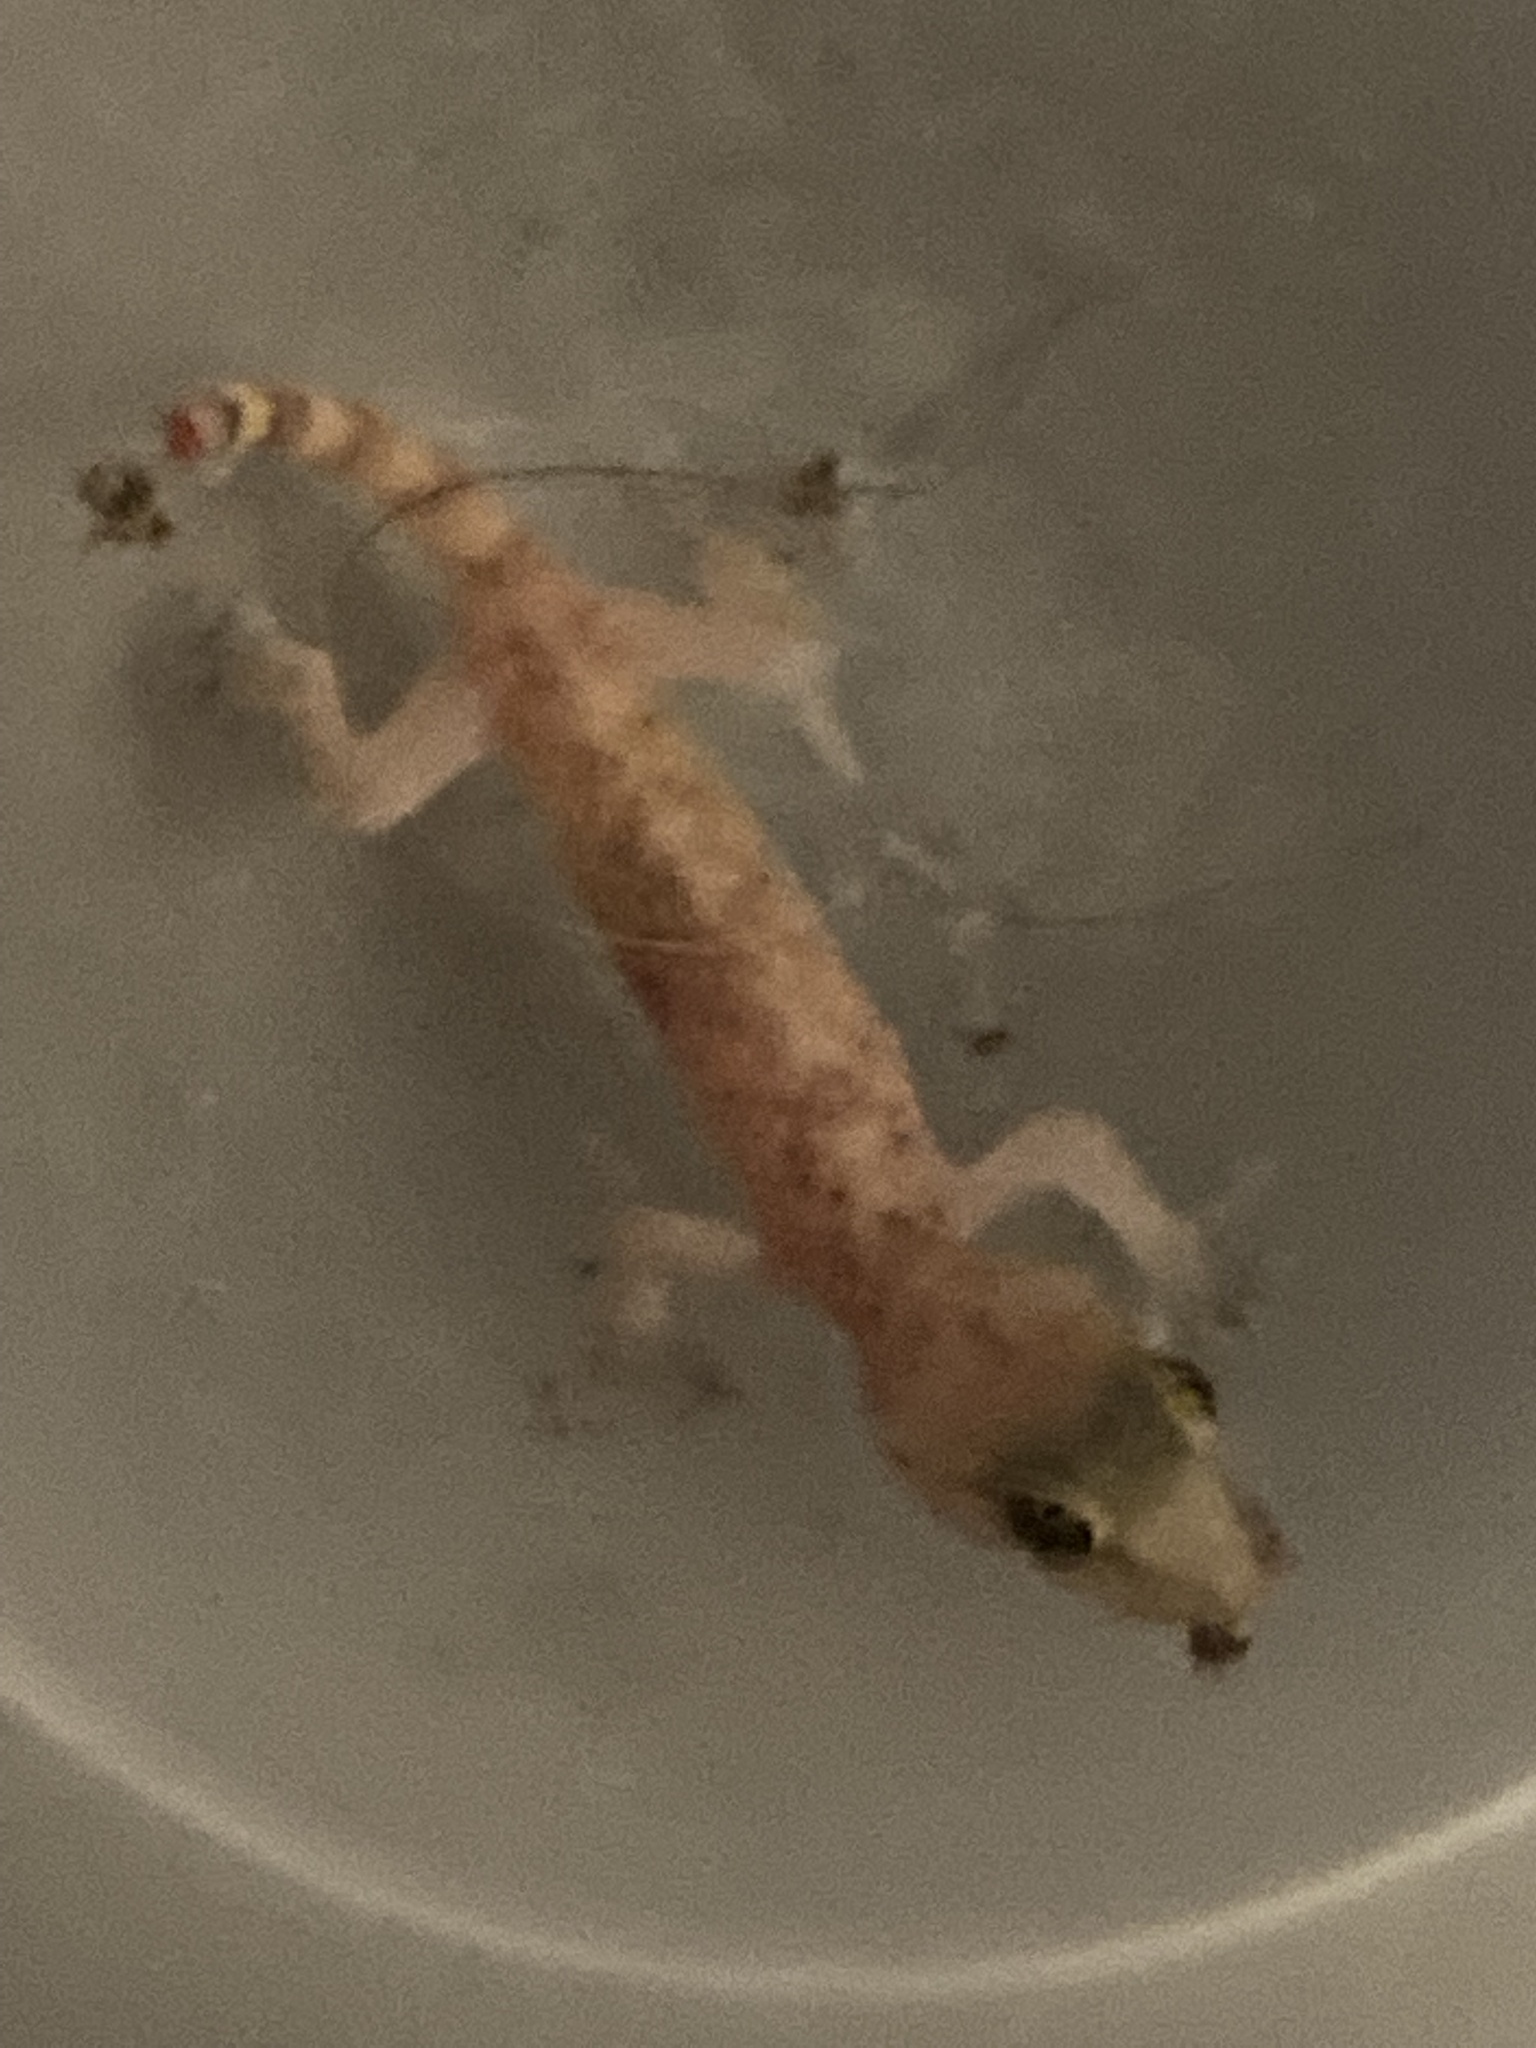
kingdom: Animalia
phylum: Chordata
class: Squamata
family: Gekkonidae
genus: Hemidactylus
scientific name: Hemidactylus turcicus
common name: Turkish gecko
